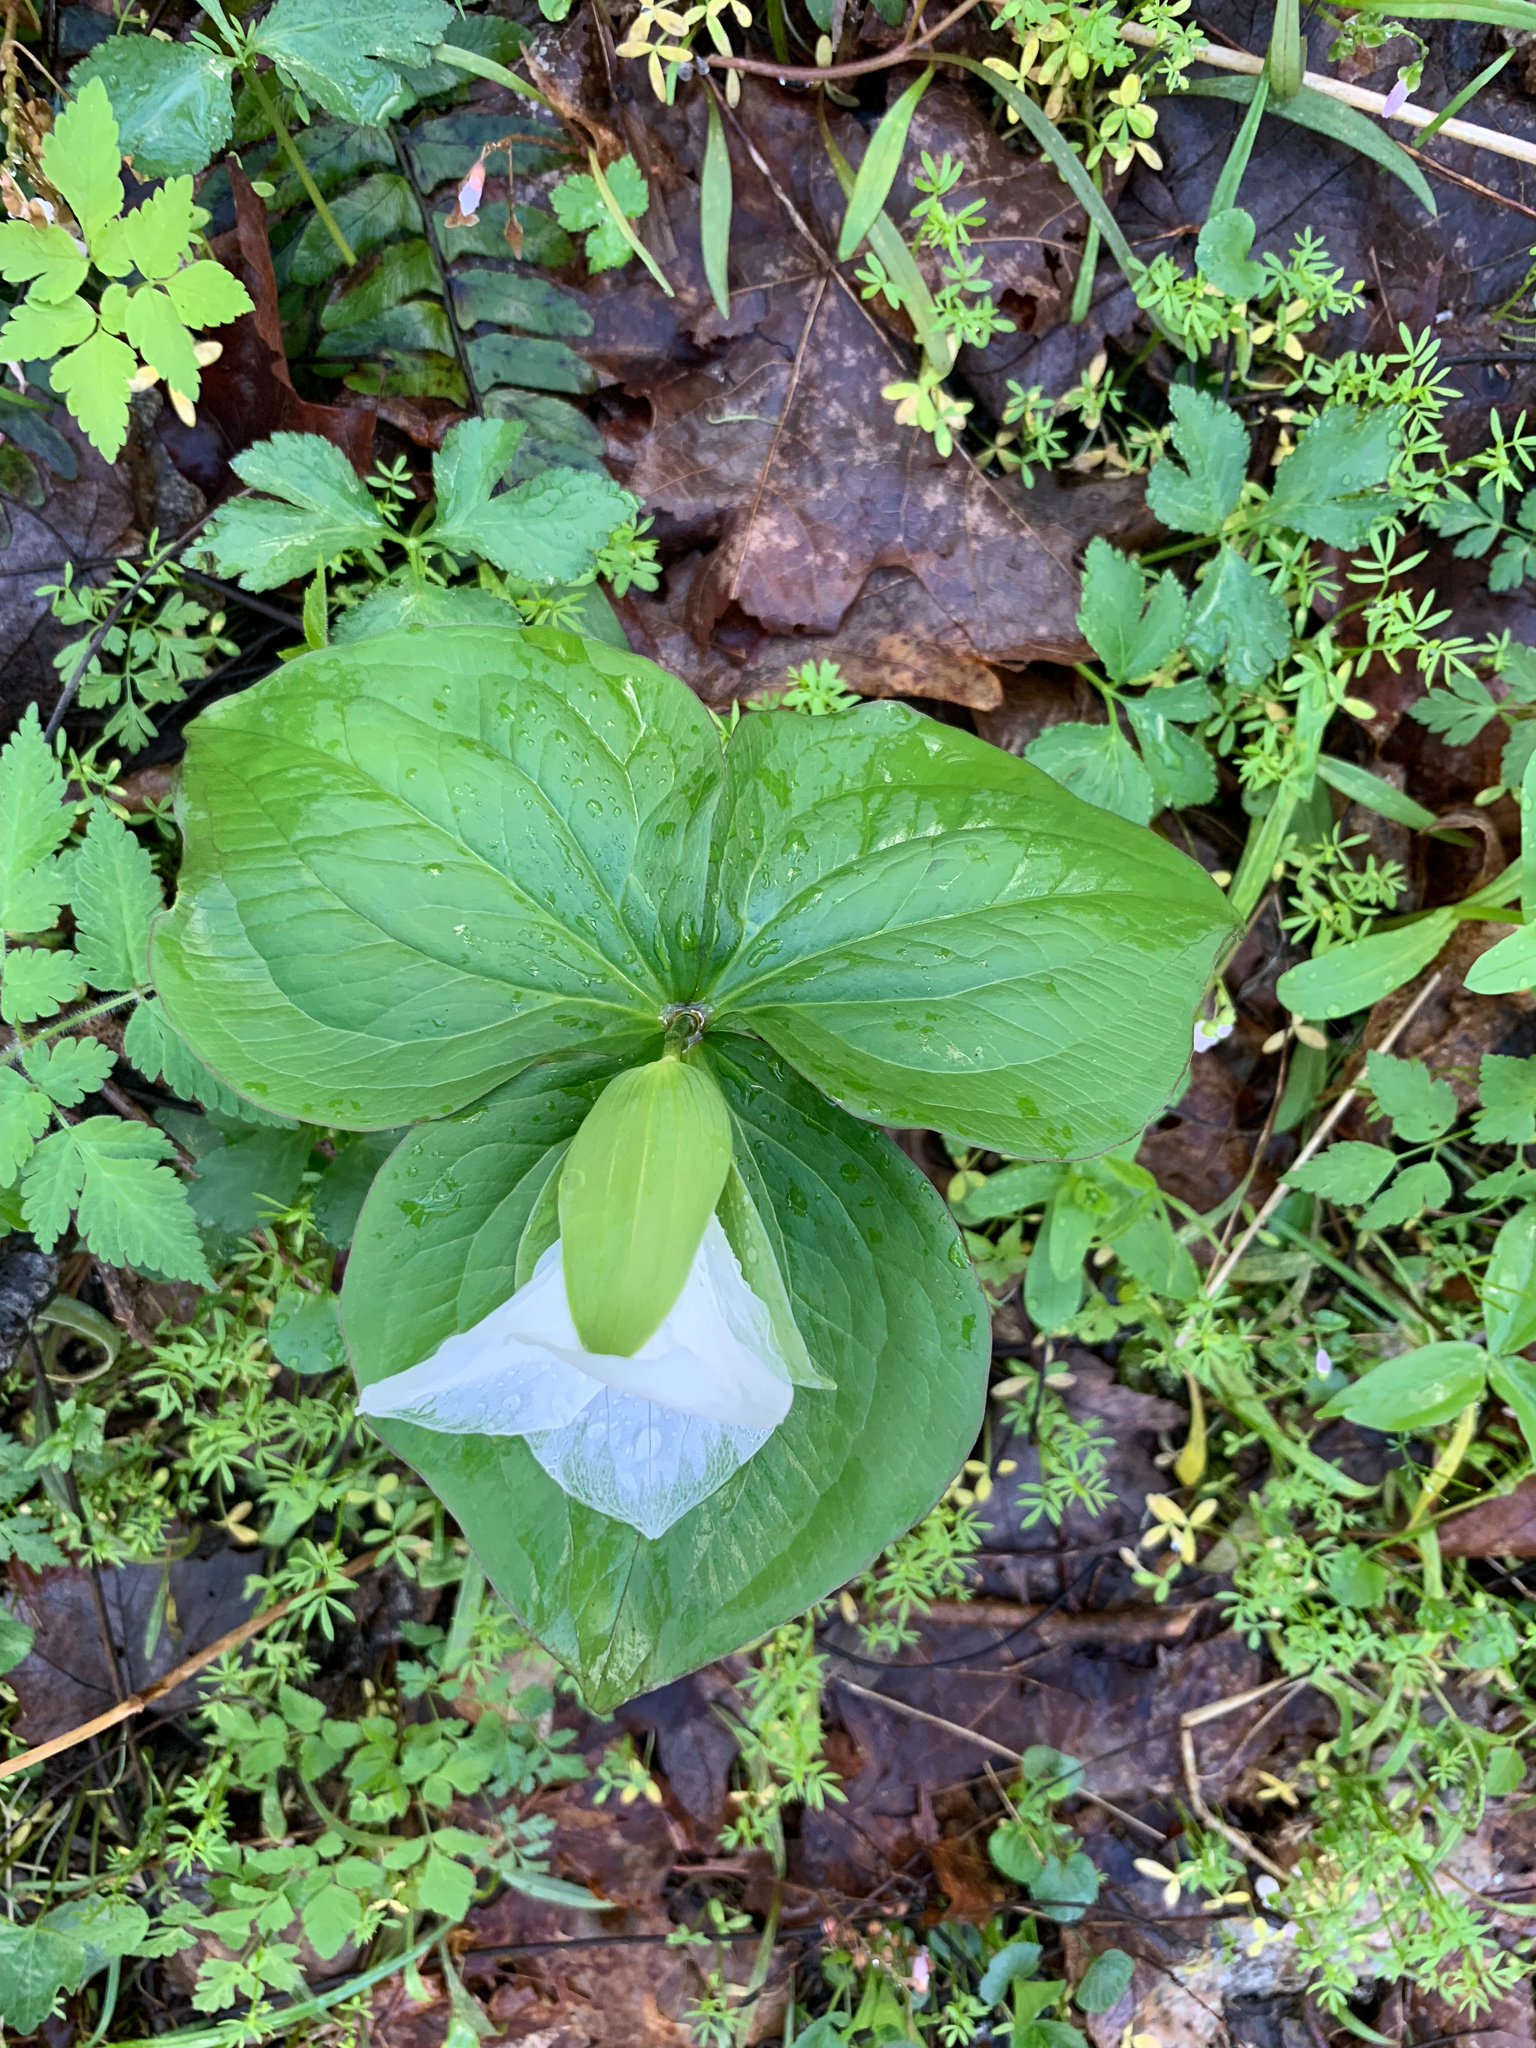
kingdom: Plantae
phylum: Tracheophyta
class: Liliopsida
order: Liliales
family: Melanthiaceae
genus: Trillium
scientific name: Trillium grandiflorum
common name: Great white trillium
